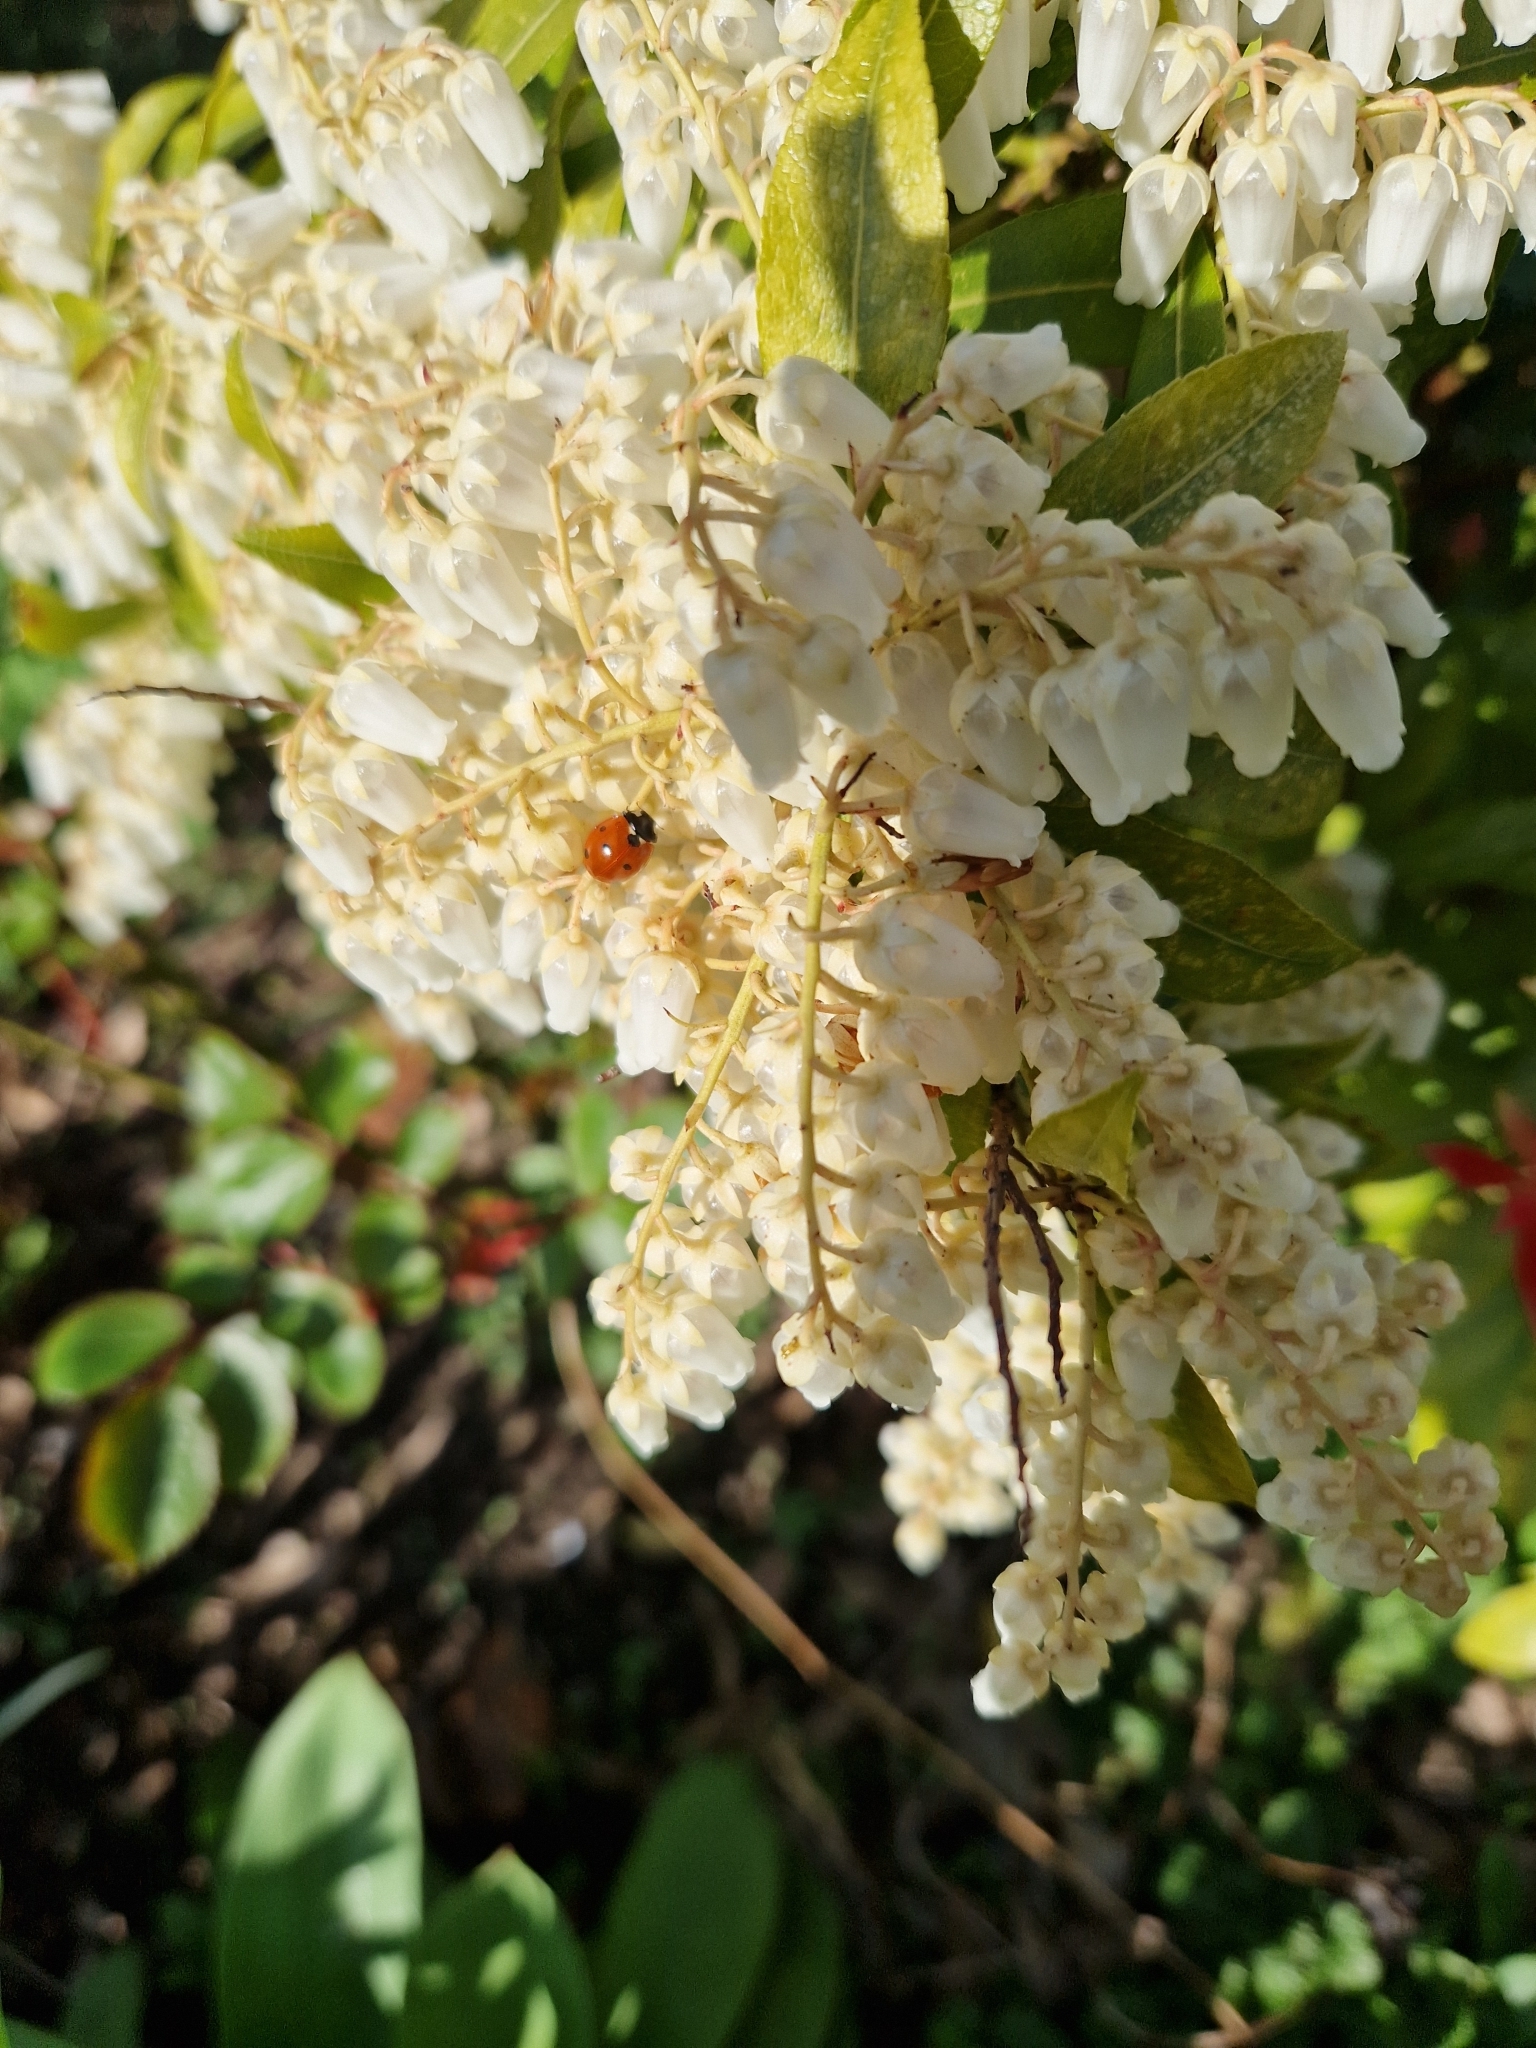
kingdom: Animalia
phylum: Arthropoda
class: Insecta
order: Coleoptera
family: Coccinellidae
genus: Coccinella
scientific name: Coccinella septempunctata
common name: Sevenspotted lady beetle
